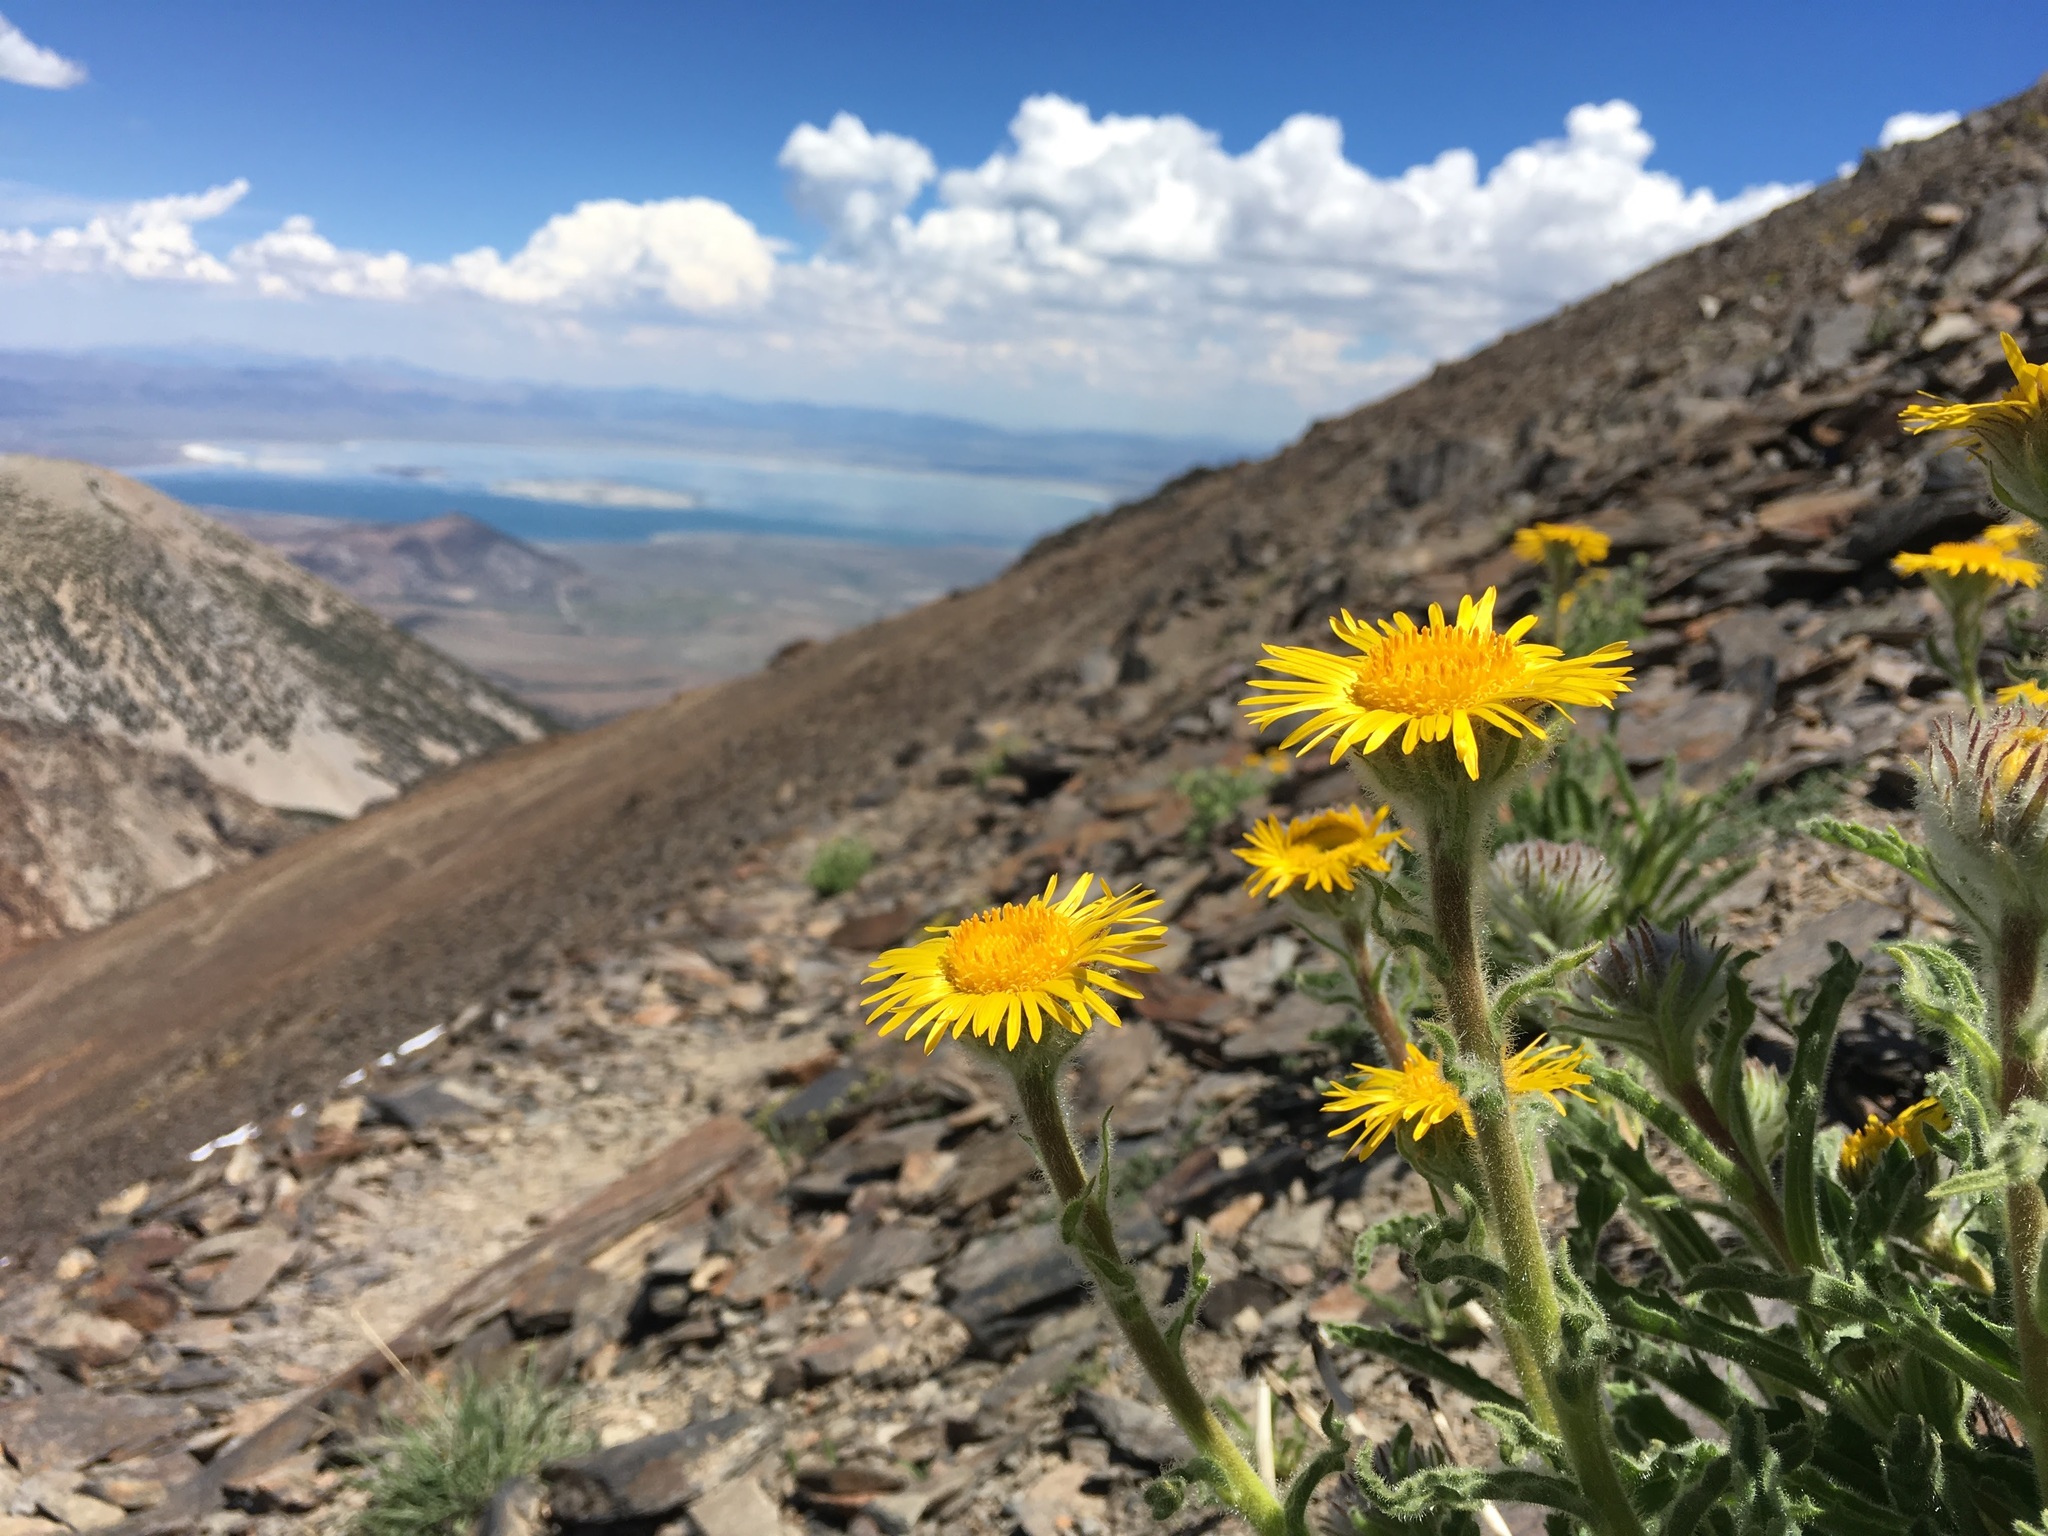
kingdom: Plantae
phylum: Tracheophyta
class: Magnoliopsida
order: Asterales
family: Asteraceae
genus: Hulsea
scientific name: Hulsea algida
